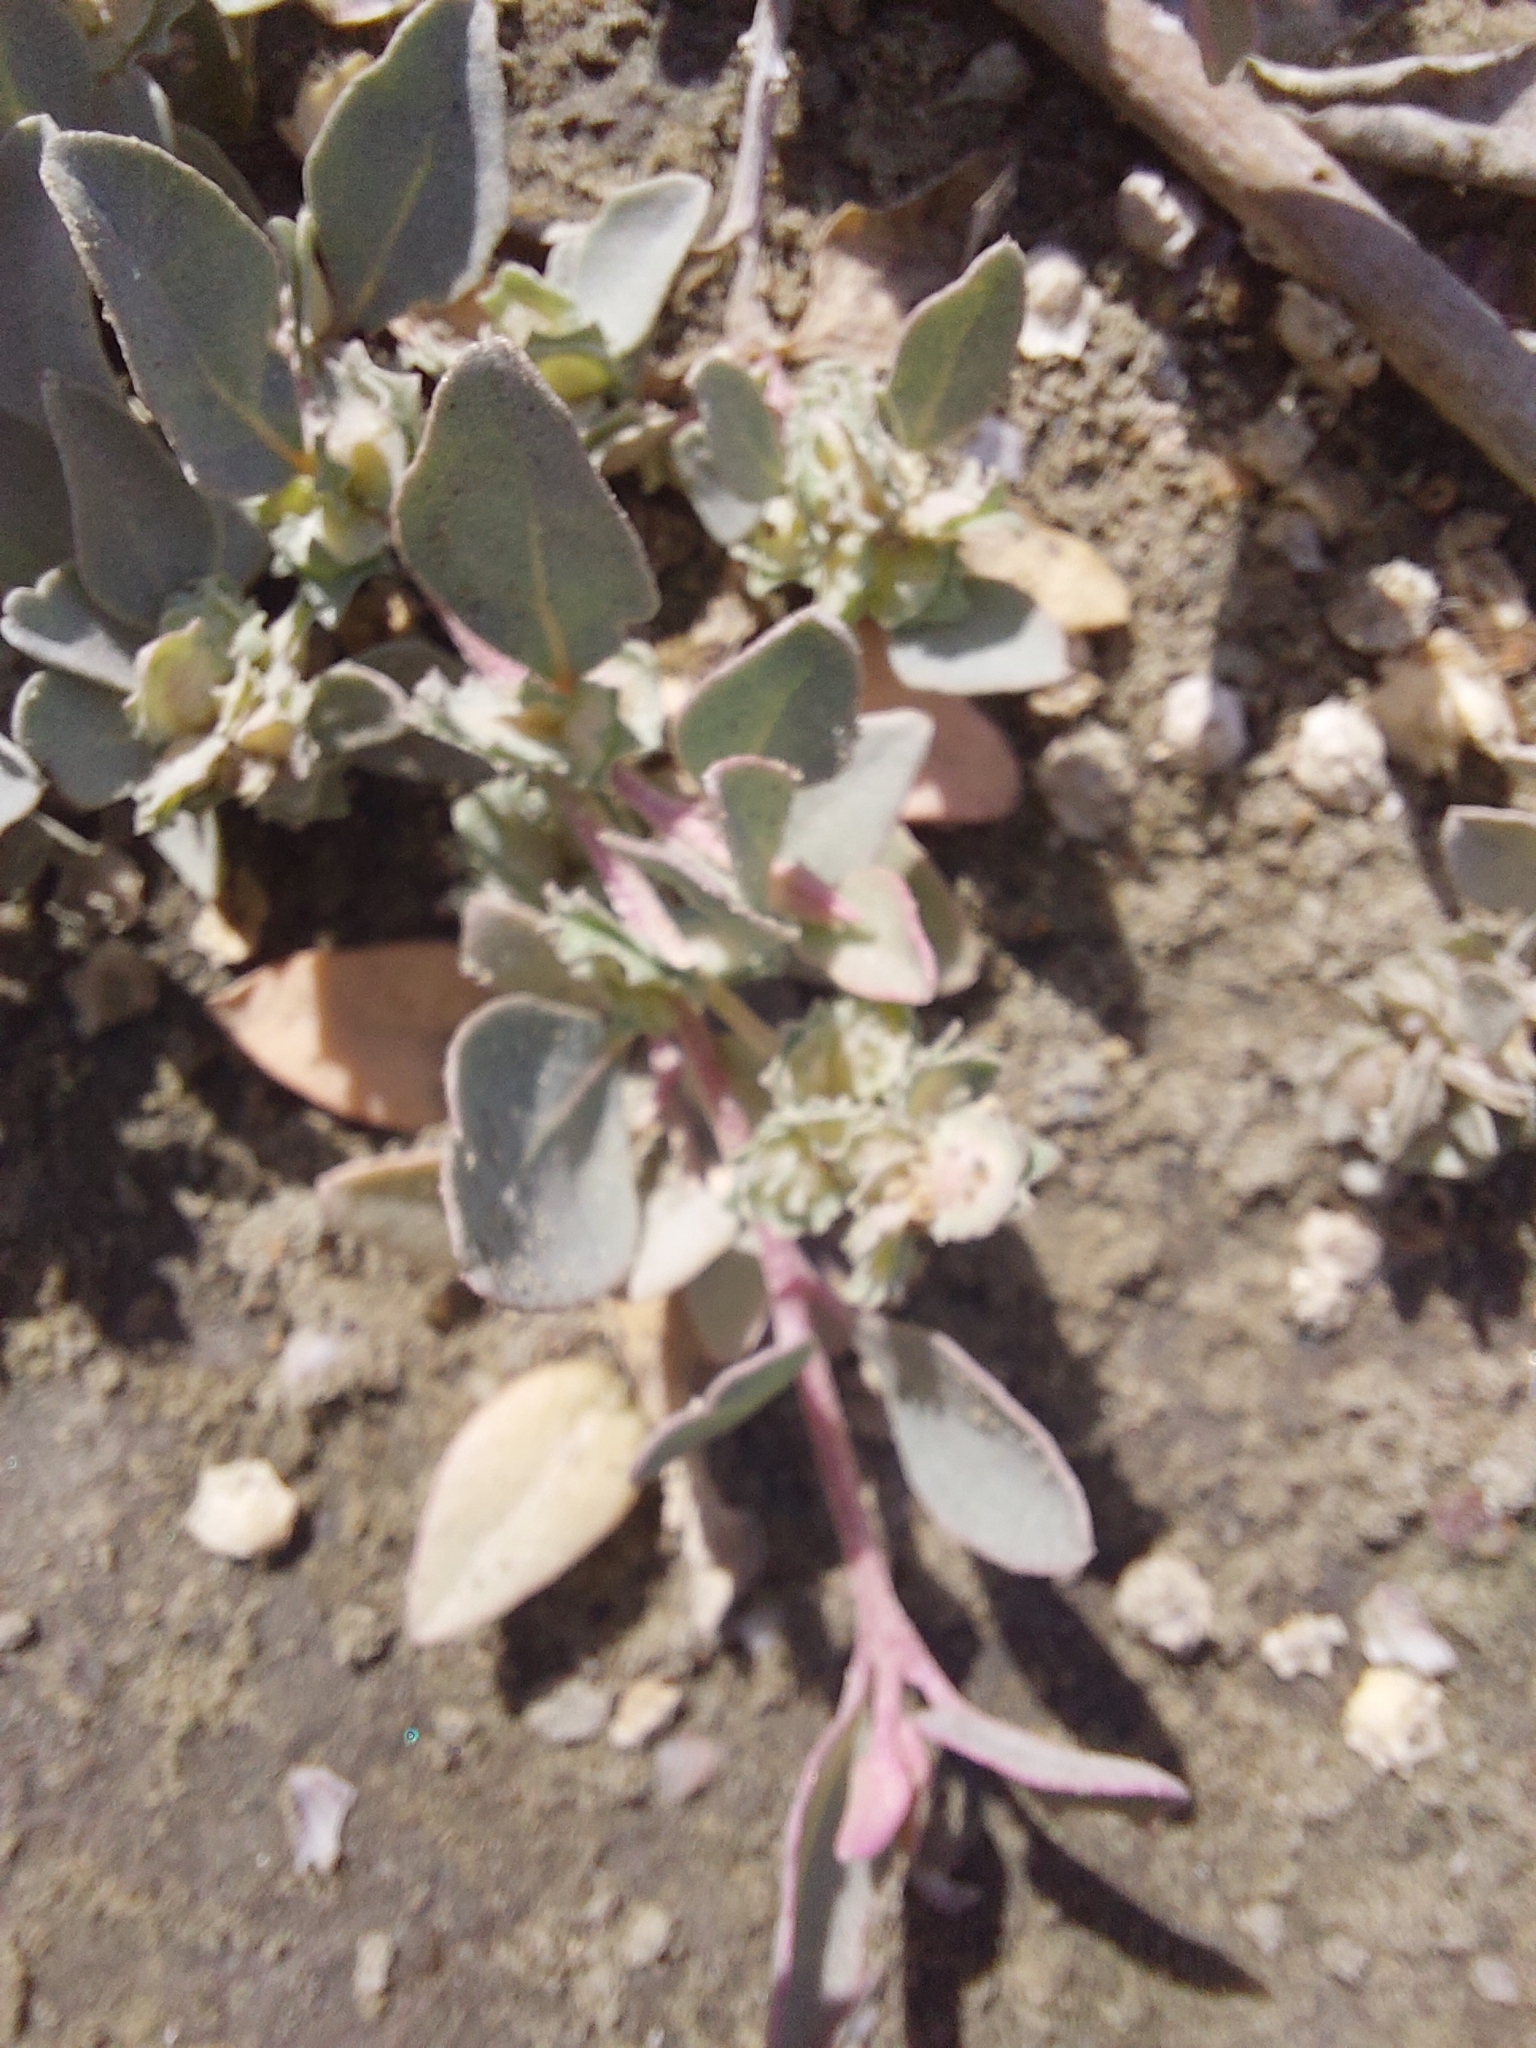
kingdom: Plantae
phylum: Tracheophyta
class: Magnoliopsida
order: Caryophyllales
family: Amaranthaceae
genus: Atriplex
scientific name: Atriplex maximowicziana
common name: Maximowicz's saltbush
